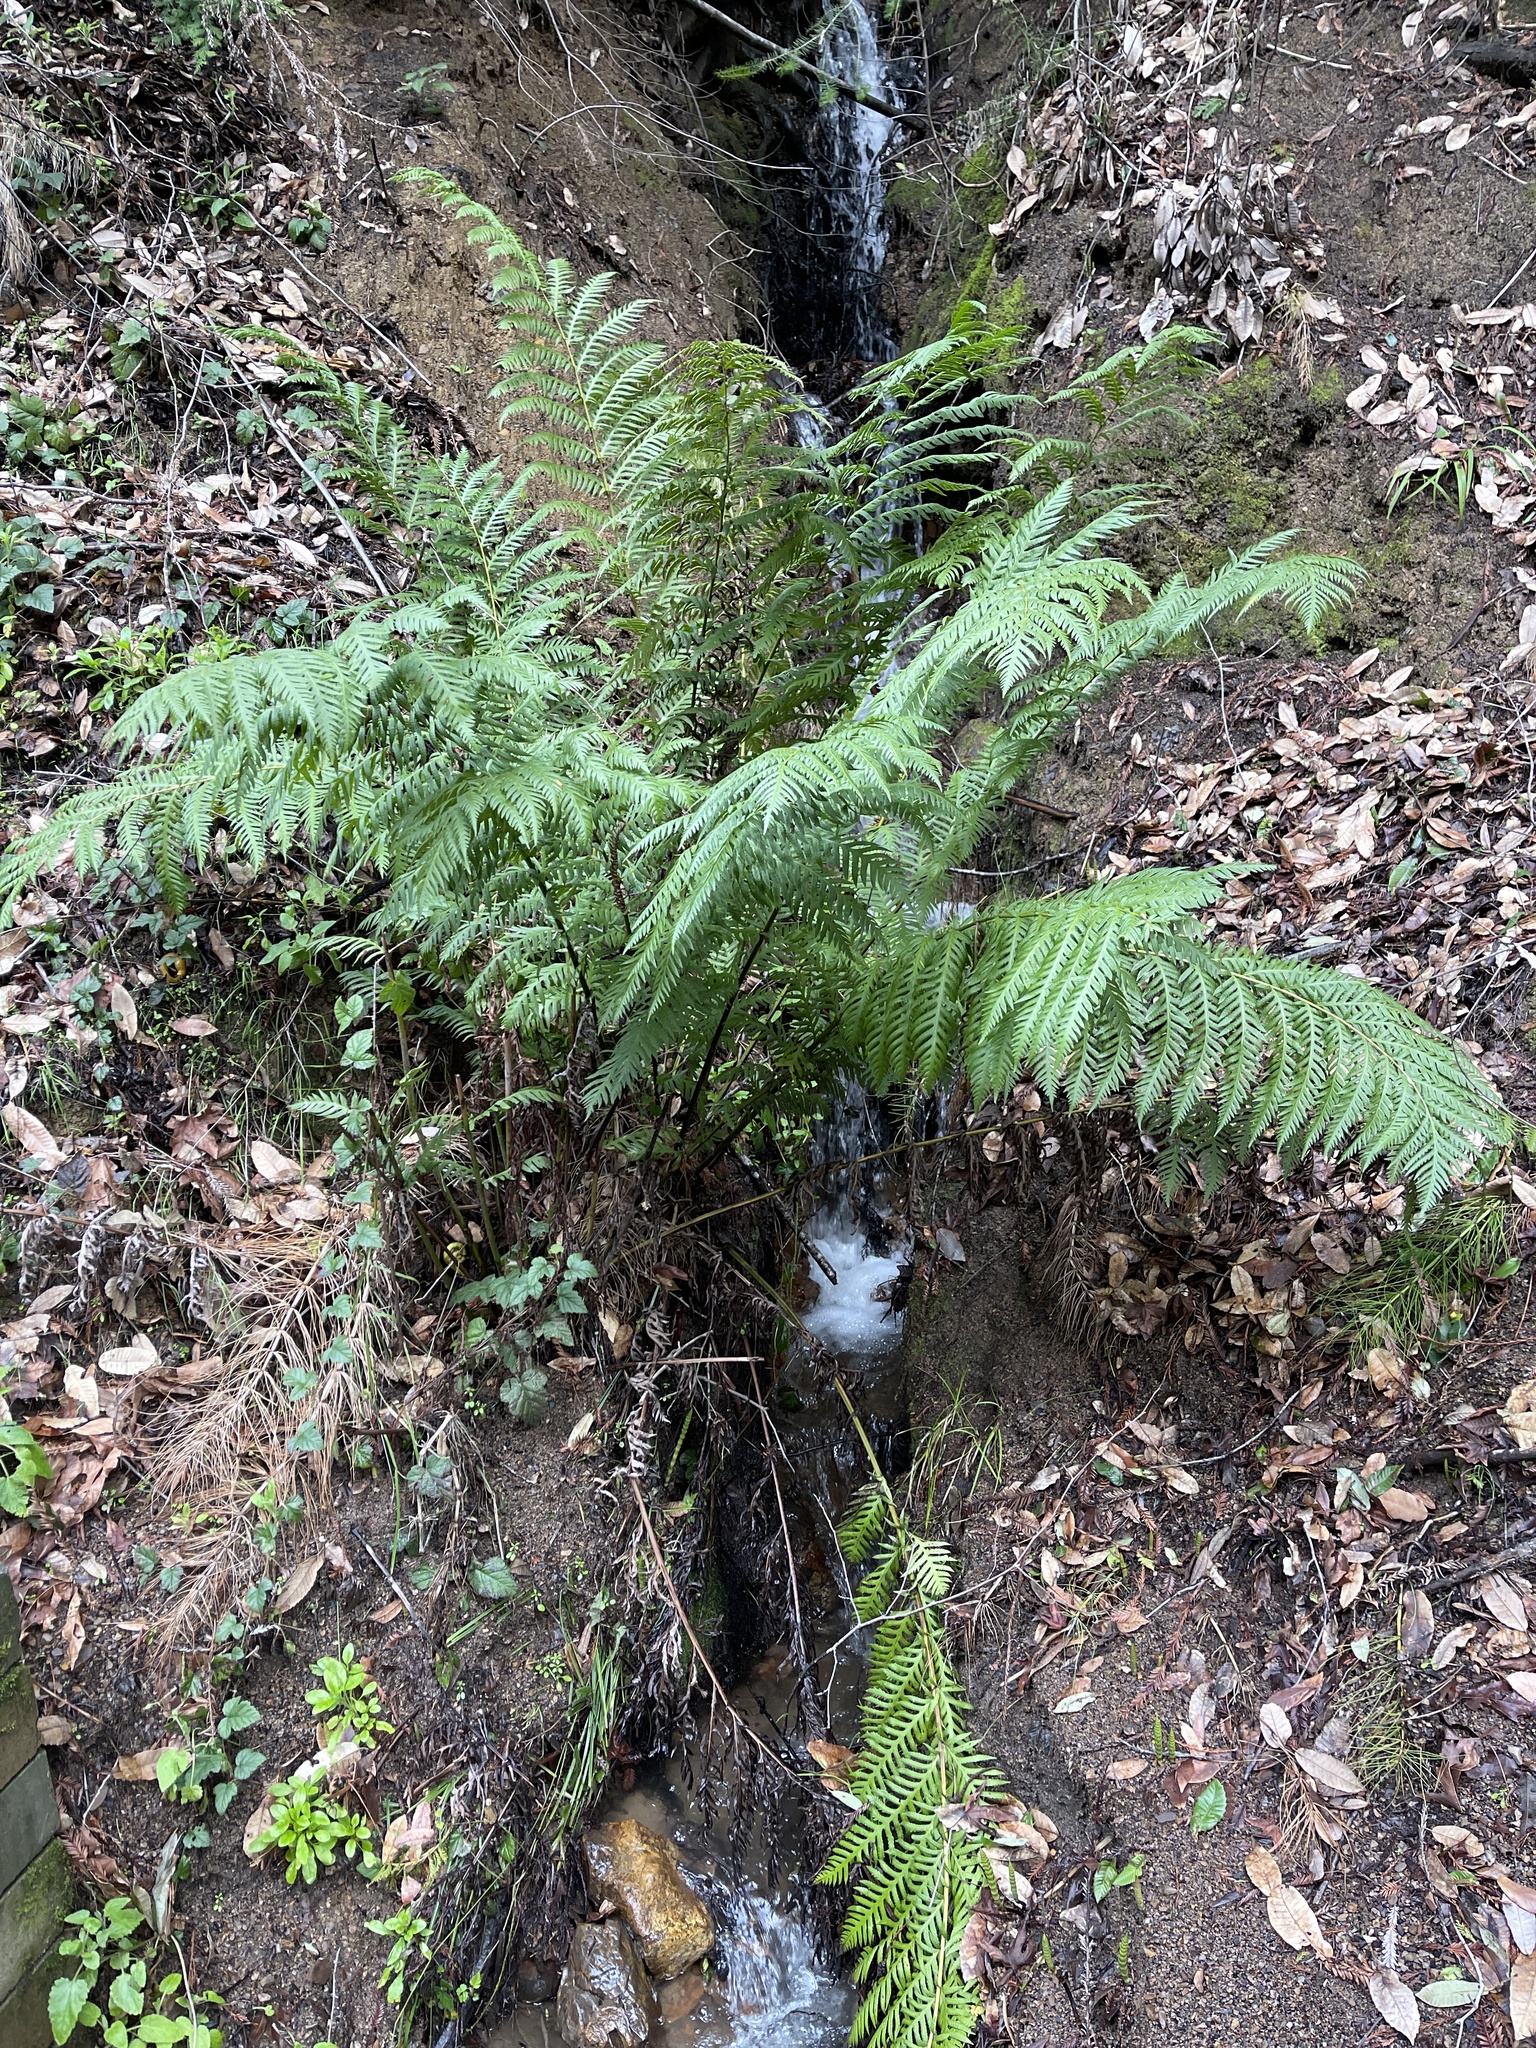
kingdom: Plantae
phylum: Tracheophyta
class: Polypodiopsida
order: Polypodiales
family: Blechnaceae
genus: Woodwardia
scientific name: Woodwardia fimbriata
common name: Giant chain fern
